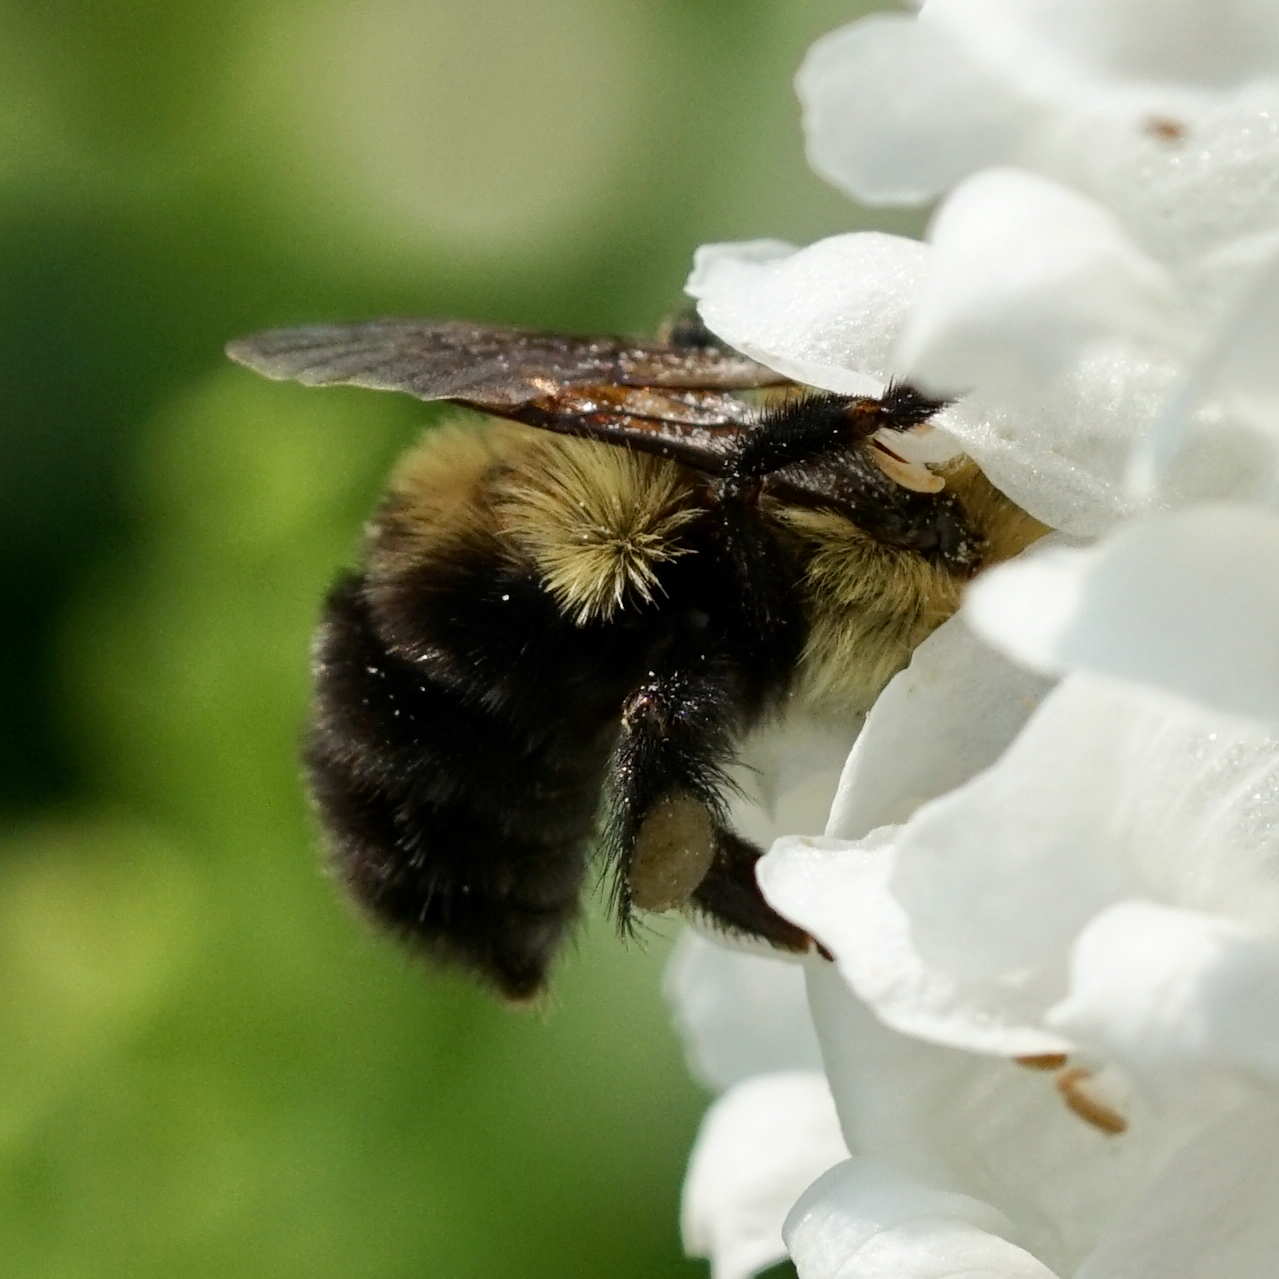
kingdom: Animalia
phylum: Arthropoda
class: Insecta
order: Hymenoptera
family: Apidae
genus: Bombus
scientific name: Bombus bimaculatus
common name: Two-spotted bumble bee
